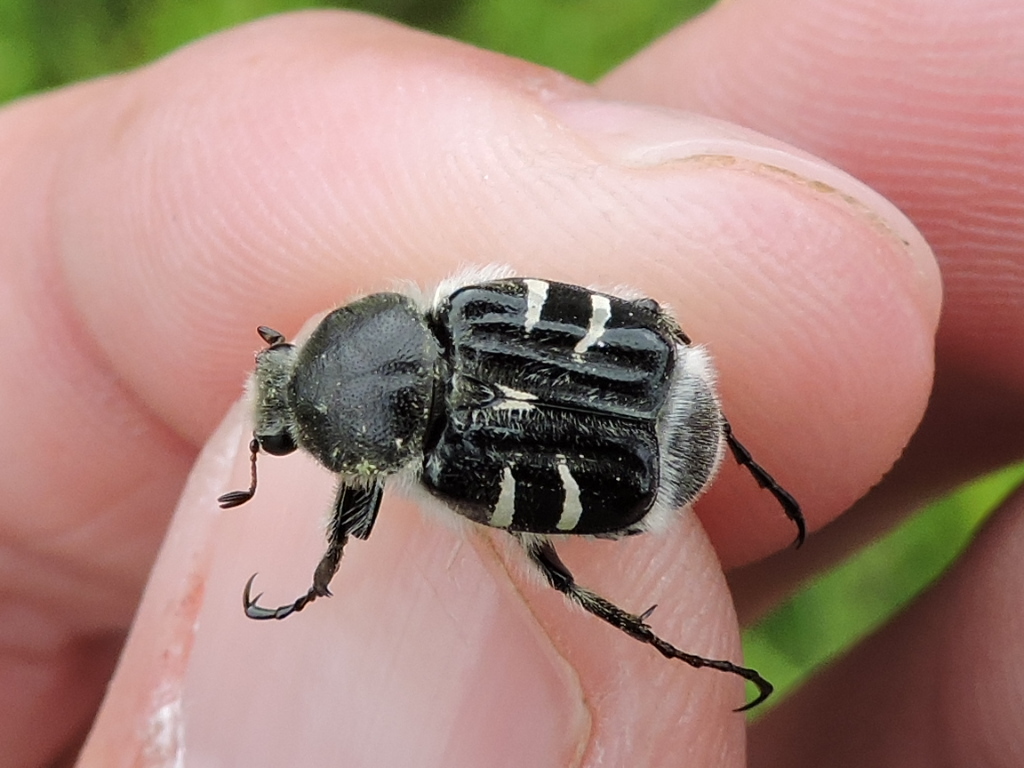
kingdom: Animalia
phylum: Arthropoda
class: Insecta
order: Coleoptera
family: Scarabaeidae
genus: Trichiotinus
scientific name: Trichiotinus texanus
